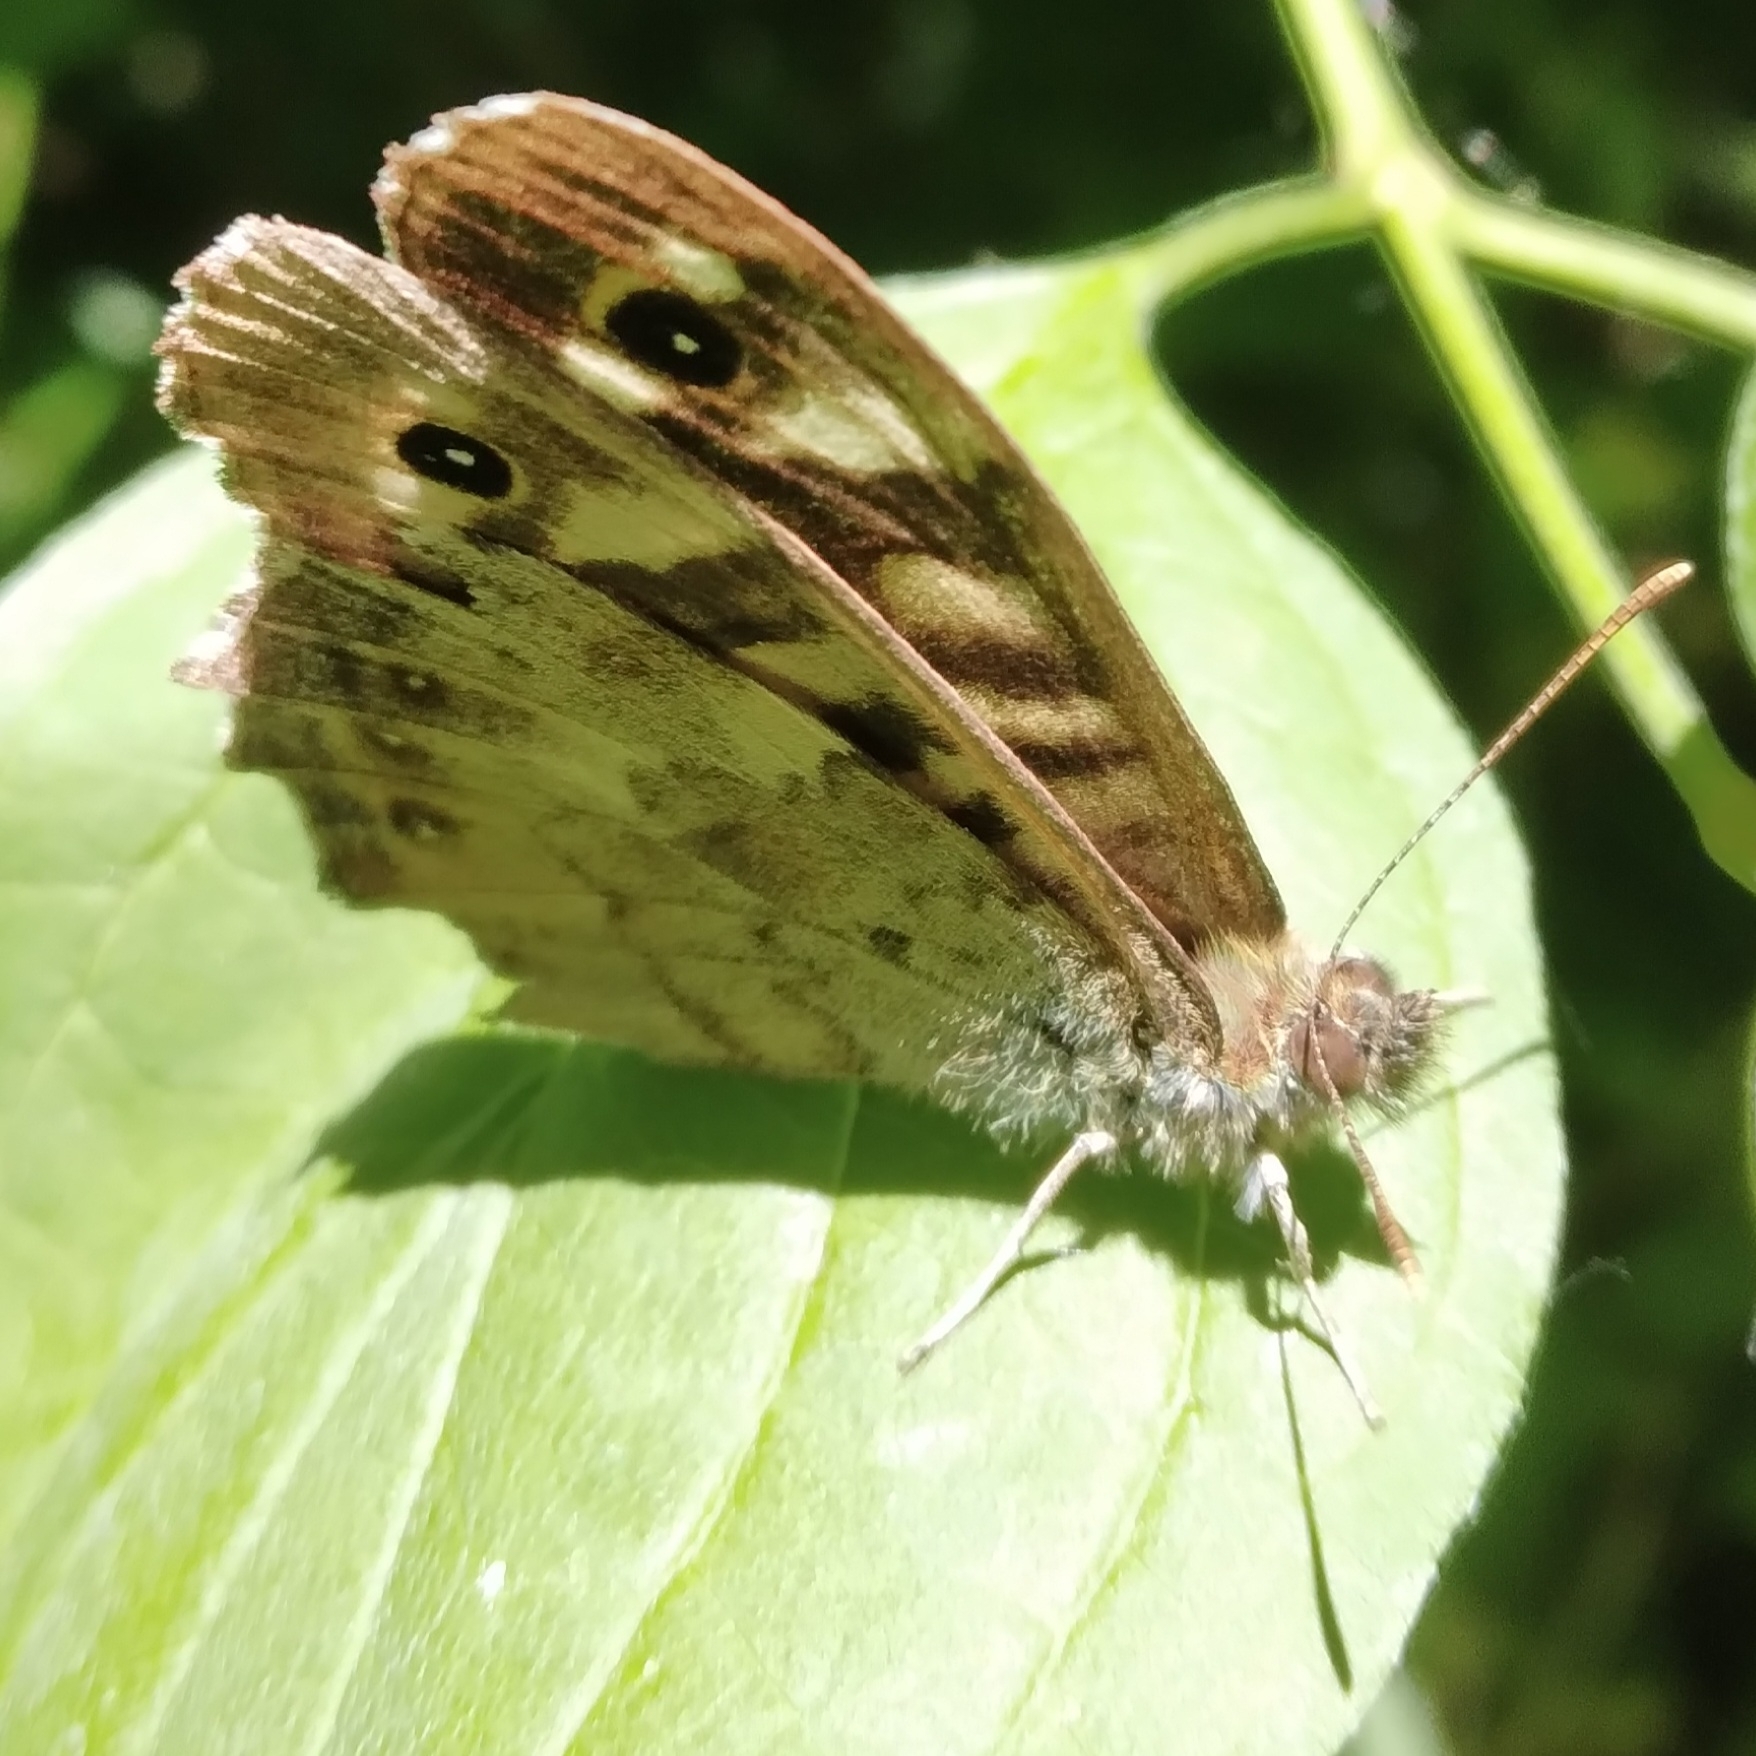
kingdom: Animalia
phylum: Arthropoda
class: Insecta
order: Lepidoptera
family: Nymphalidae
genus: Pararge
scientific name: Pararge aegeria
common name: Speckled wood
